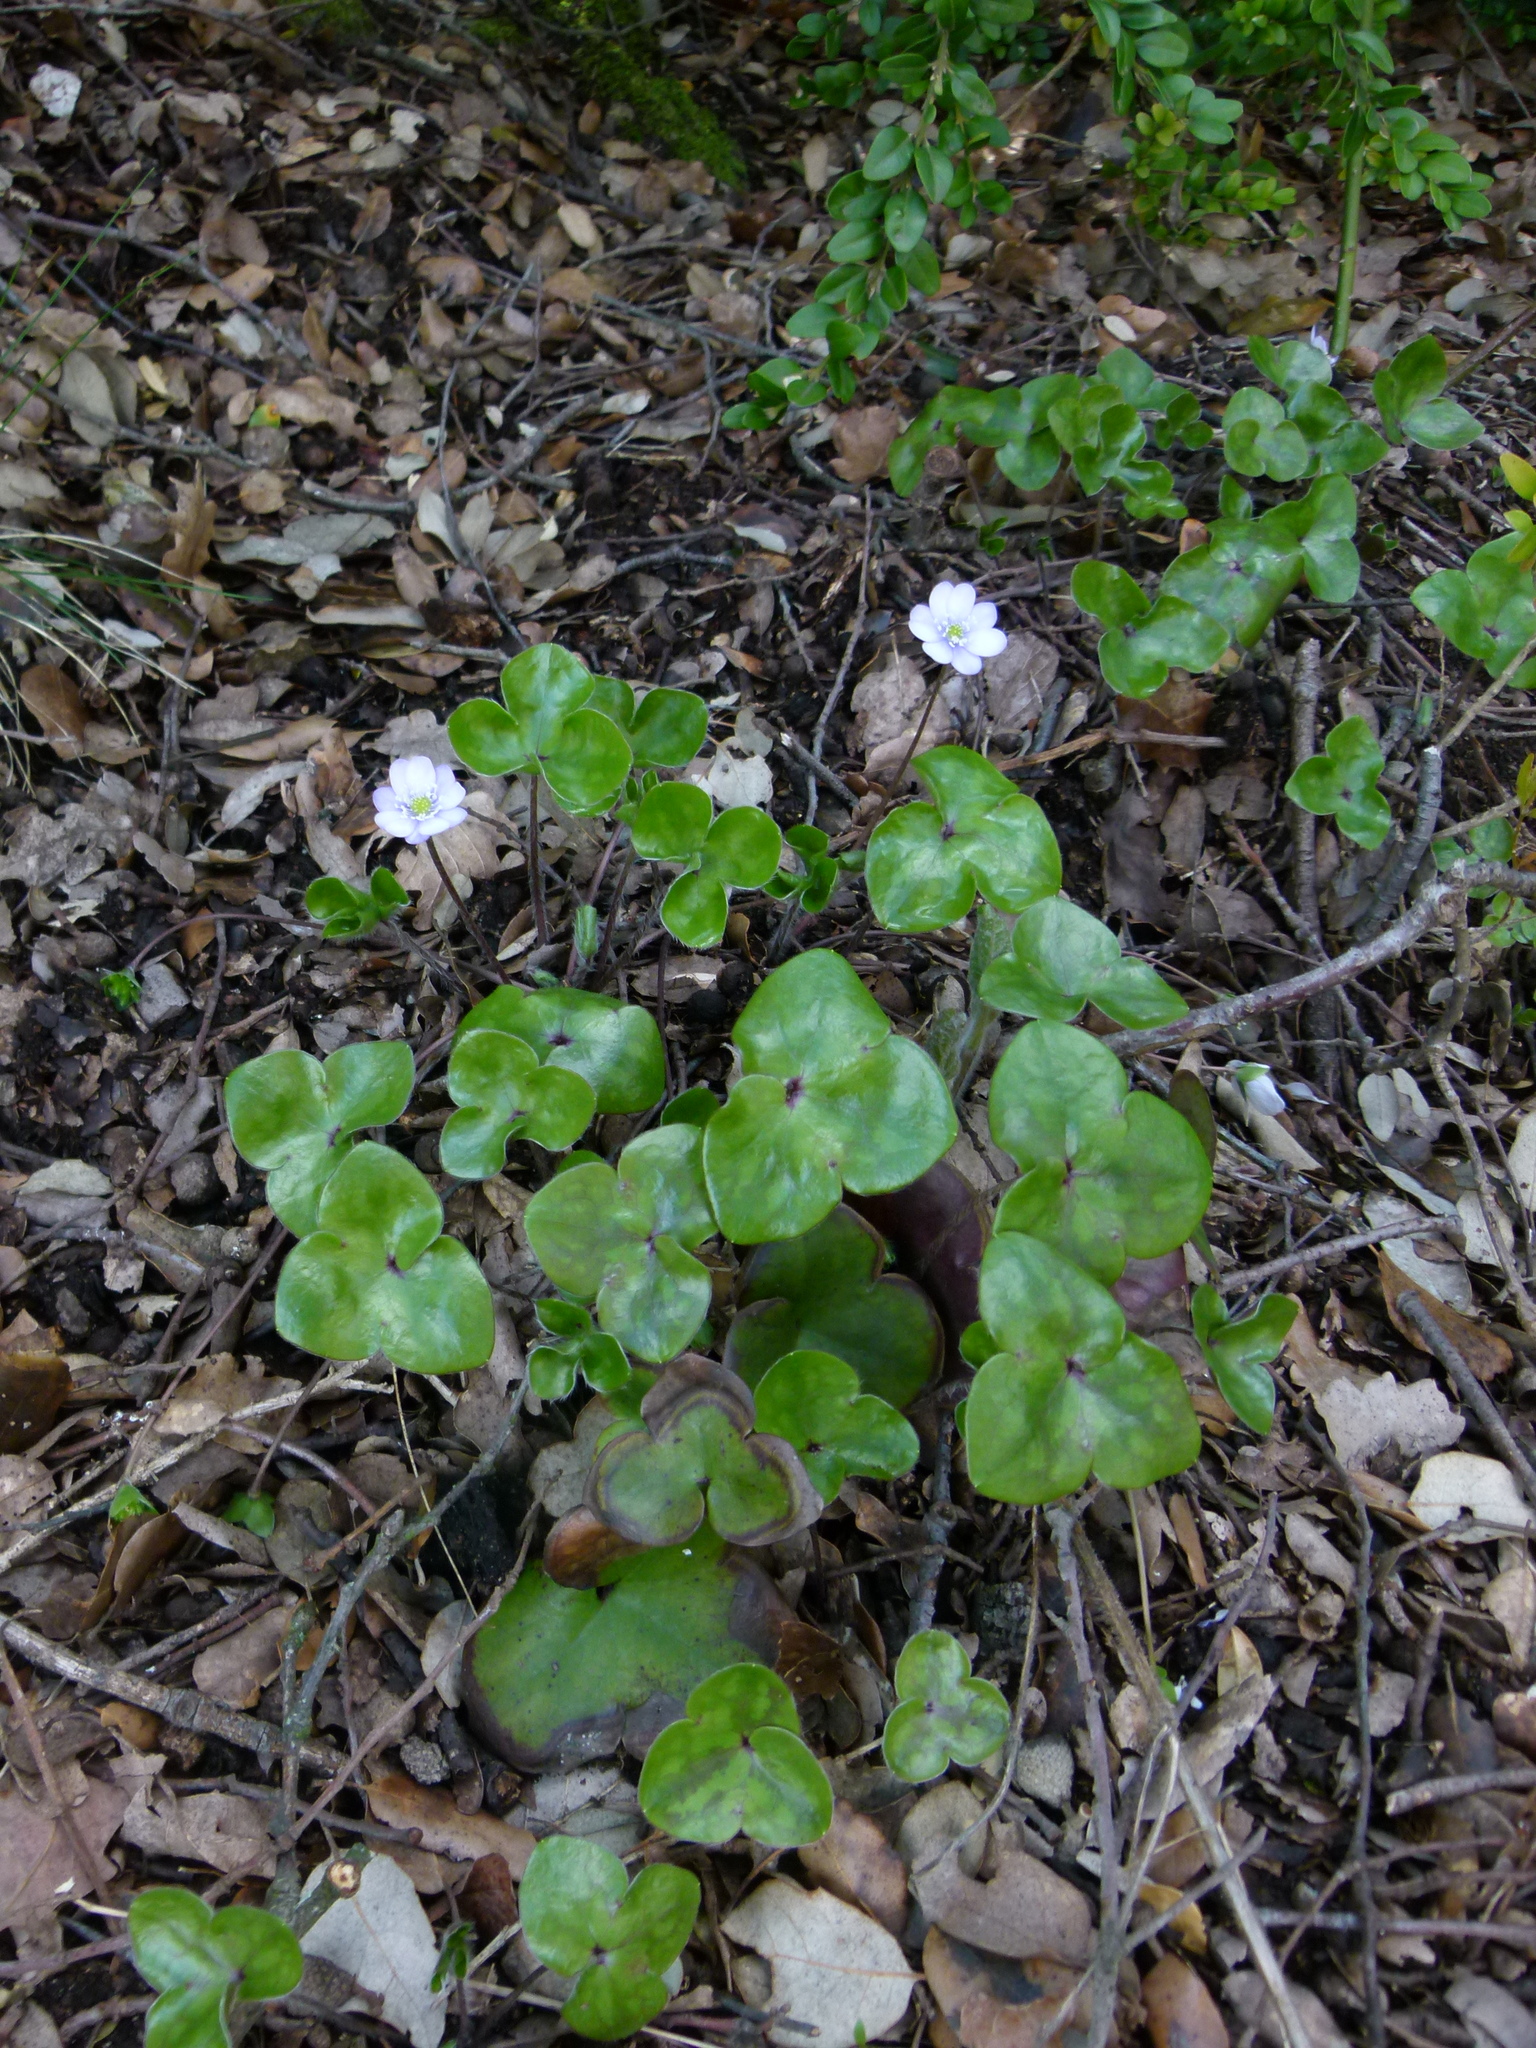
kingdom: Plantae
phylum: Tracheophyta
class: Magnoliopsida
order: Ranunculales
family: Ranunculaceae
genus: Hepatica
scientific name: Hepatica nobilis
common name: Liverleaf
